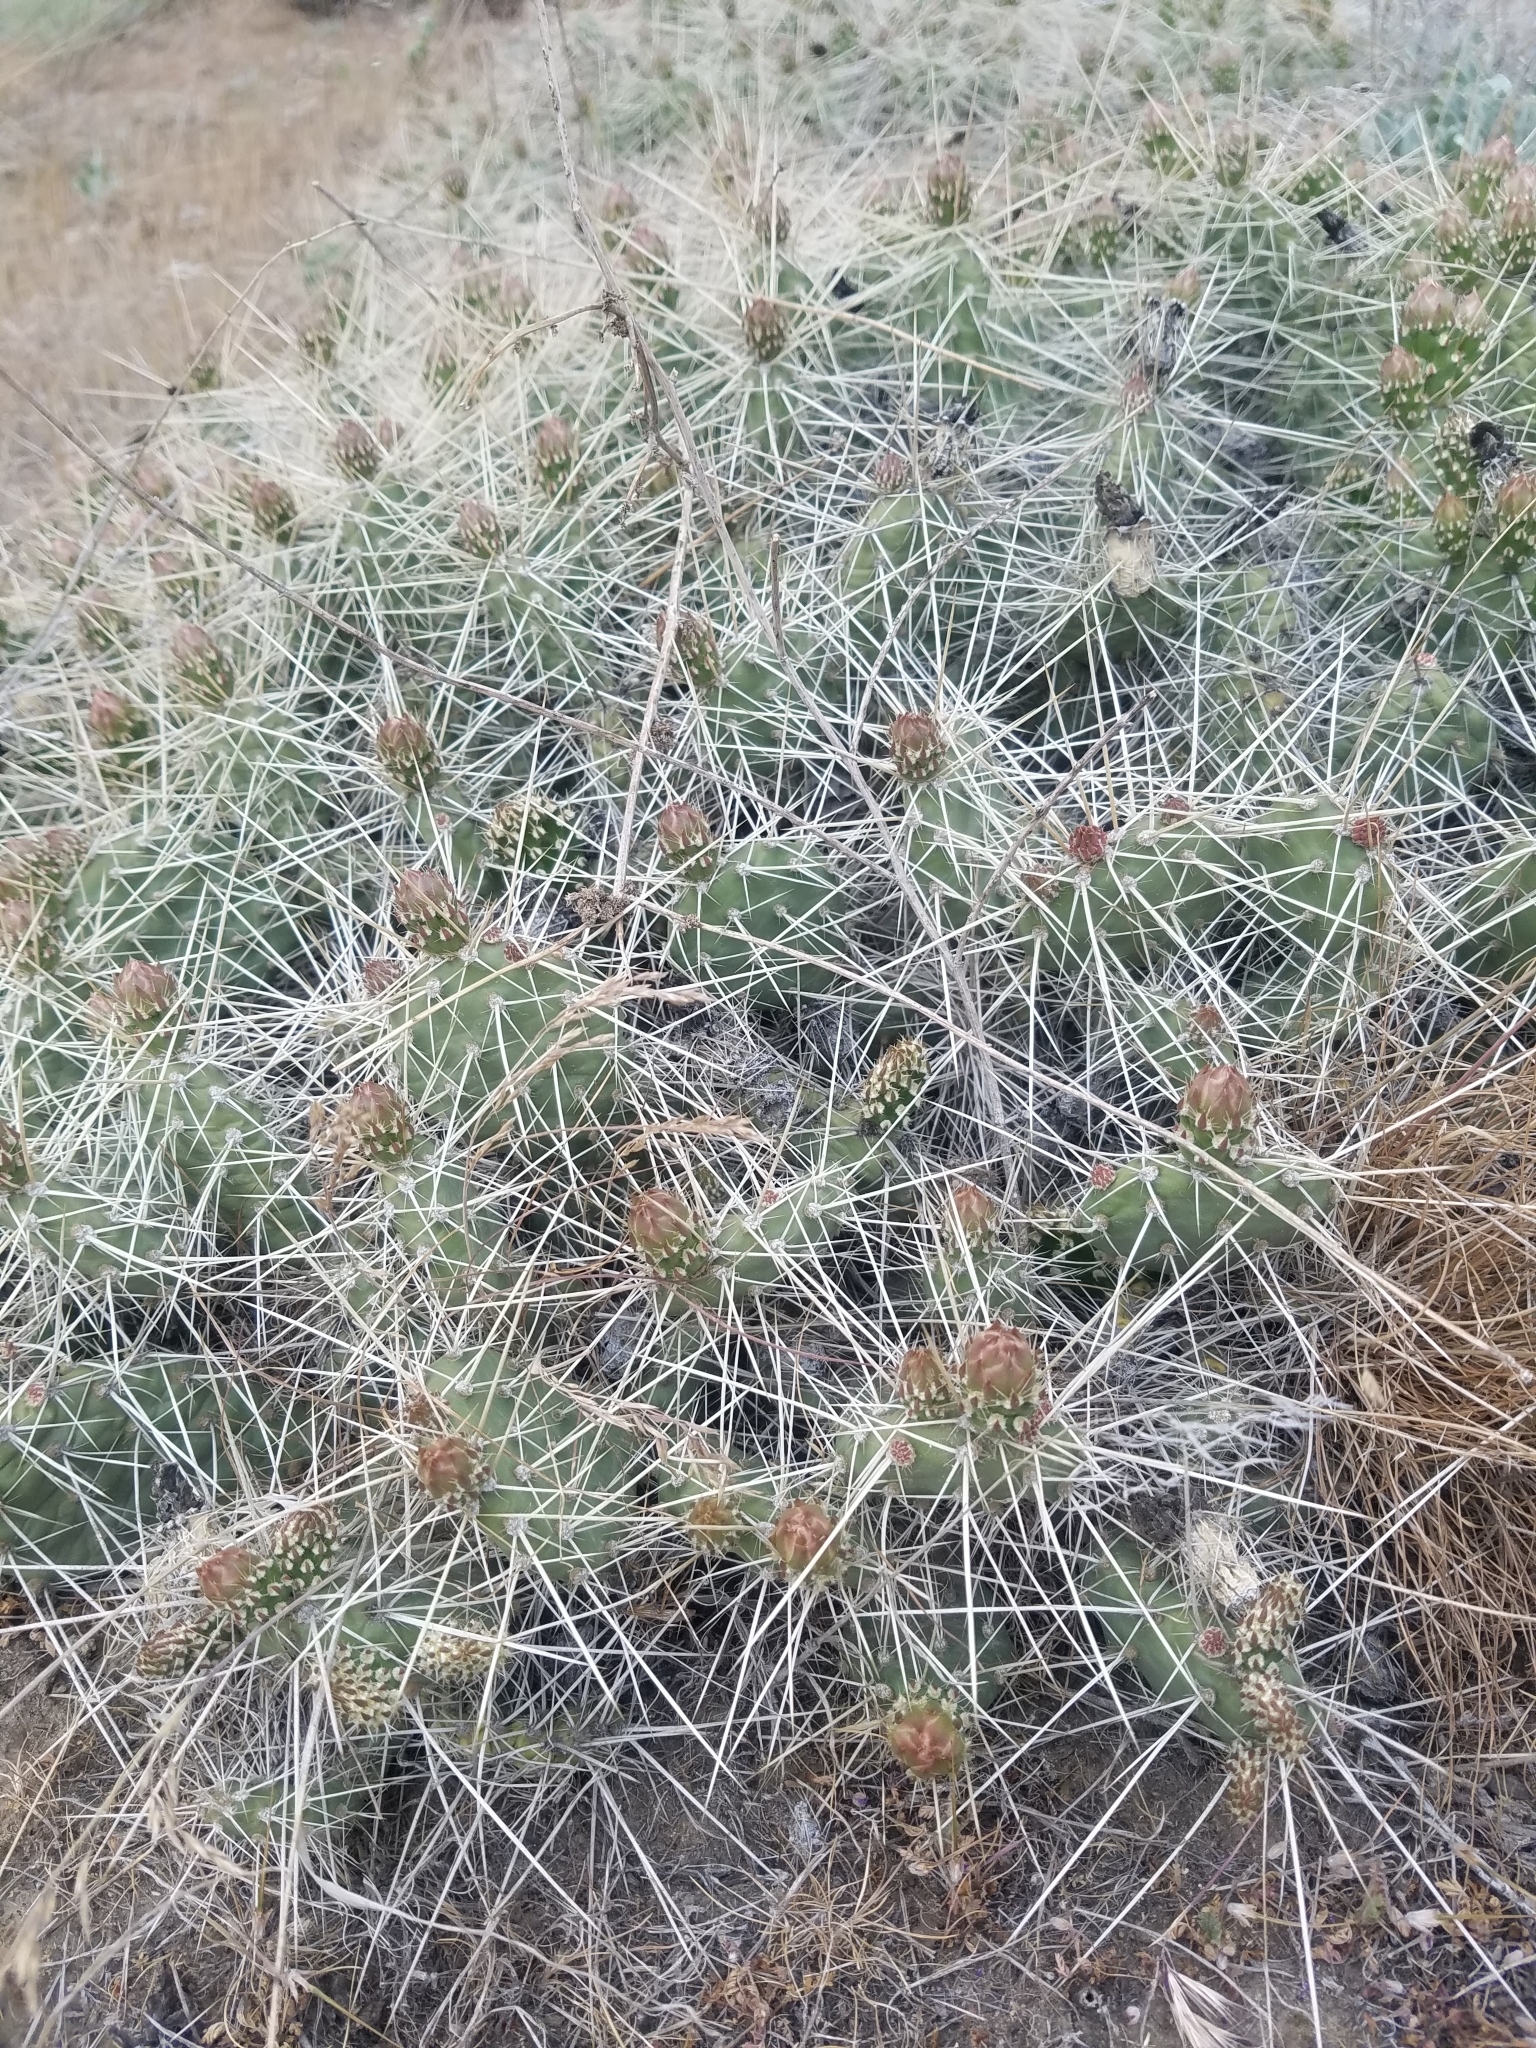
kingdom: Plantae
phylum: Tracheophyta
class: Magnoliopsida
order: Caryophyllales
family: Cactaceae
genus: Opuntia
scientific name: Opuntia columbiana
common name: Columbia prickly-pear
